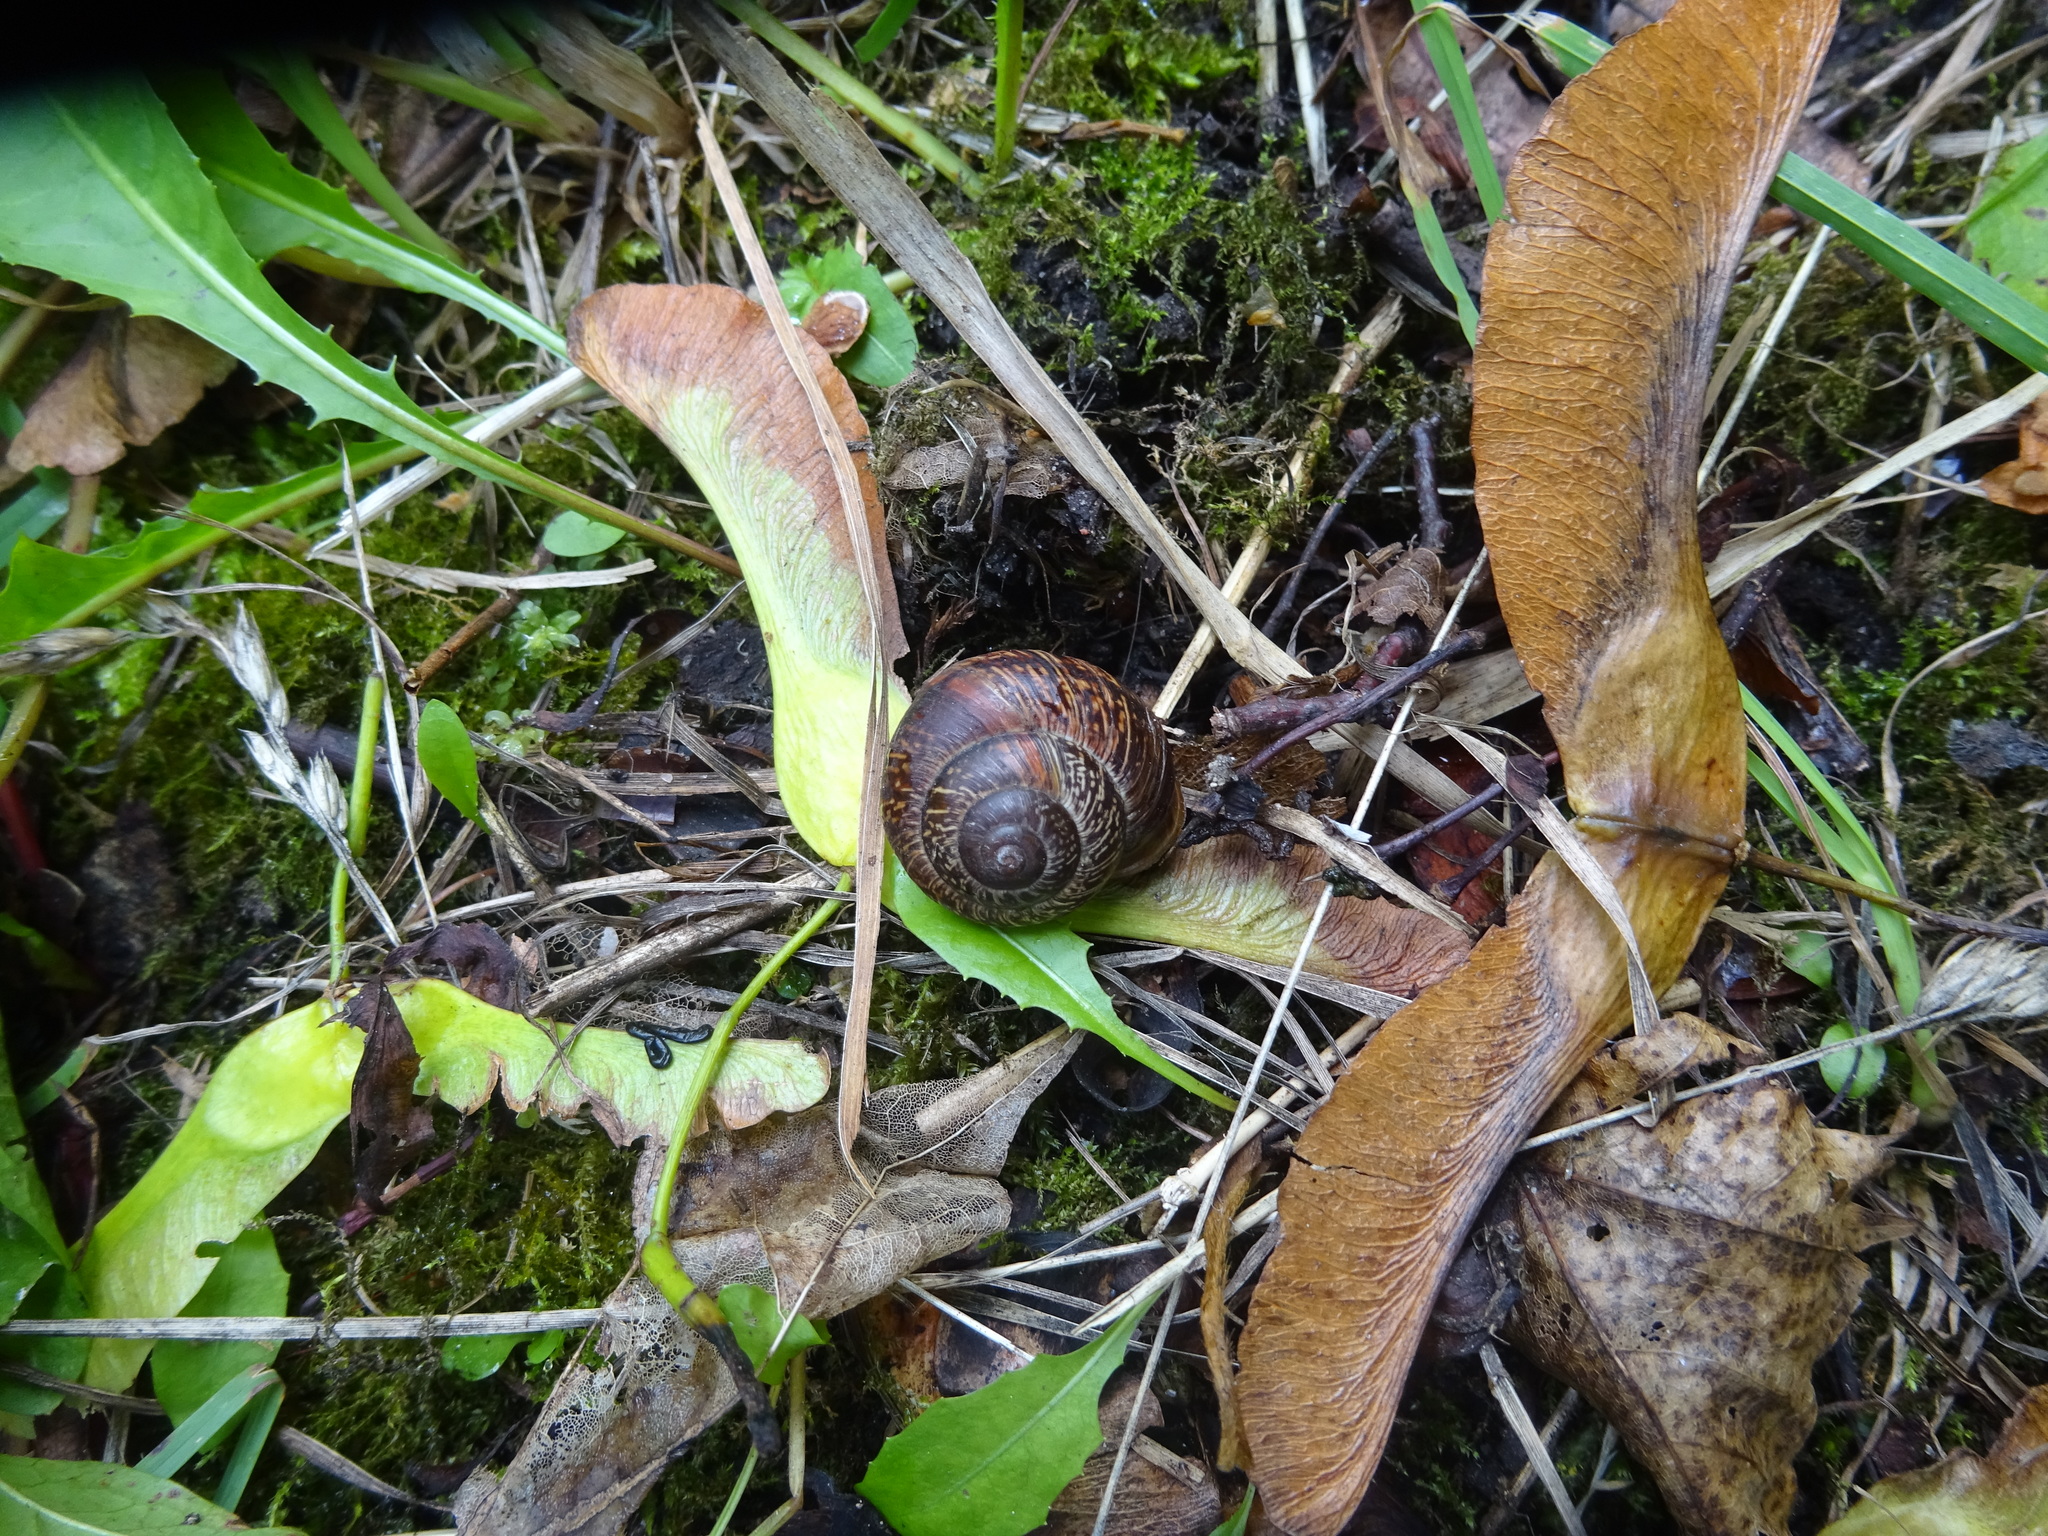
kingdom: Animalia
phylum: Mollusca
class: Gastropoda
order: Stylommatophora
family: Helicidae
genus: Arianta
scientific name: Arianta arbustorum
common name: Copse snail
